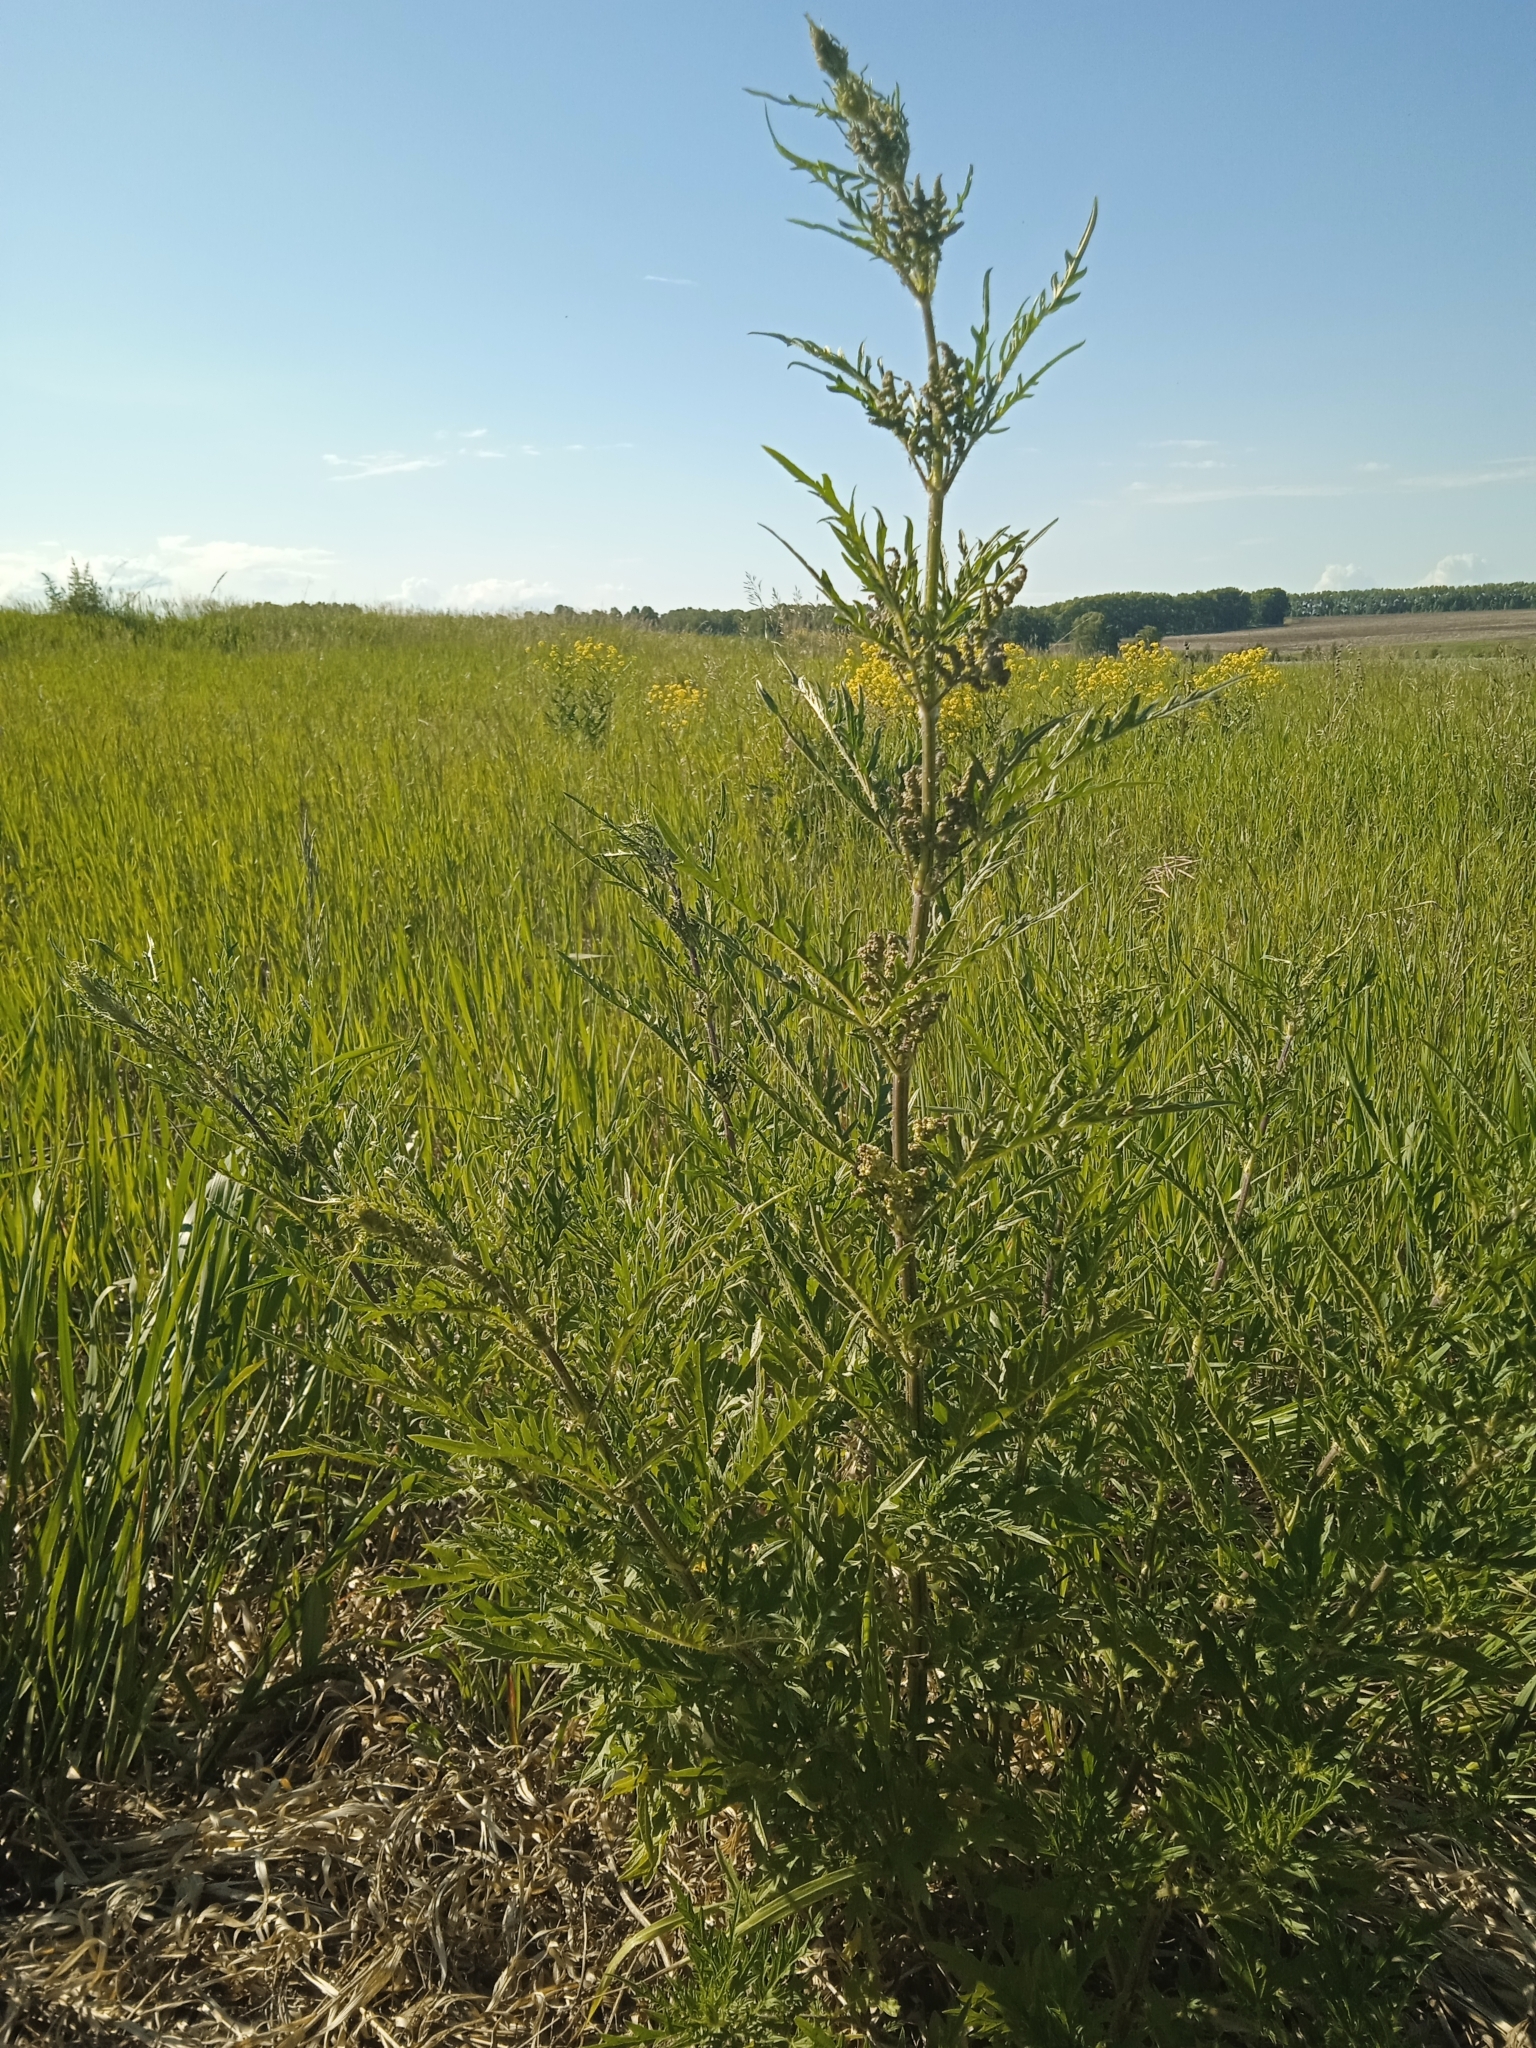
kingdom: Plantae
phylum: Tracheophyta
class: Magnoliopsida
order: Rosales
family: Urticaceae
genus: Urtica
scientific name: Urtica cannabina
